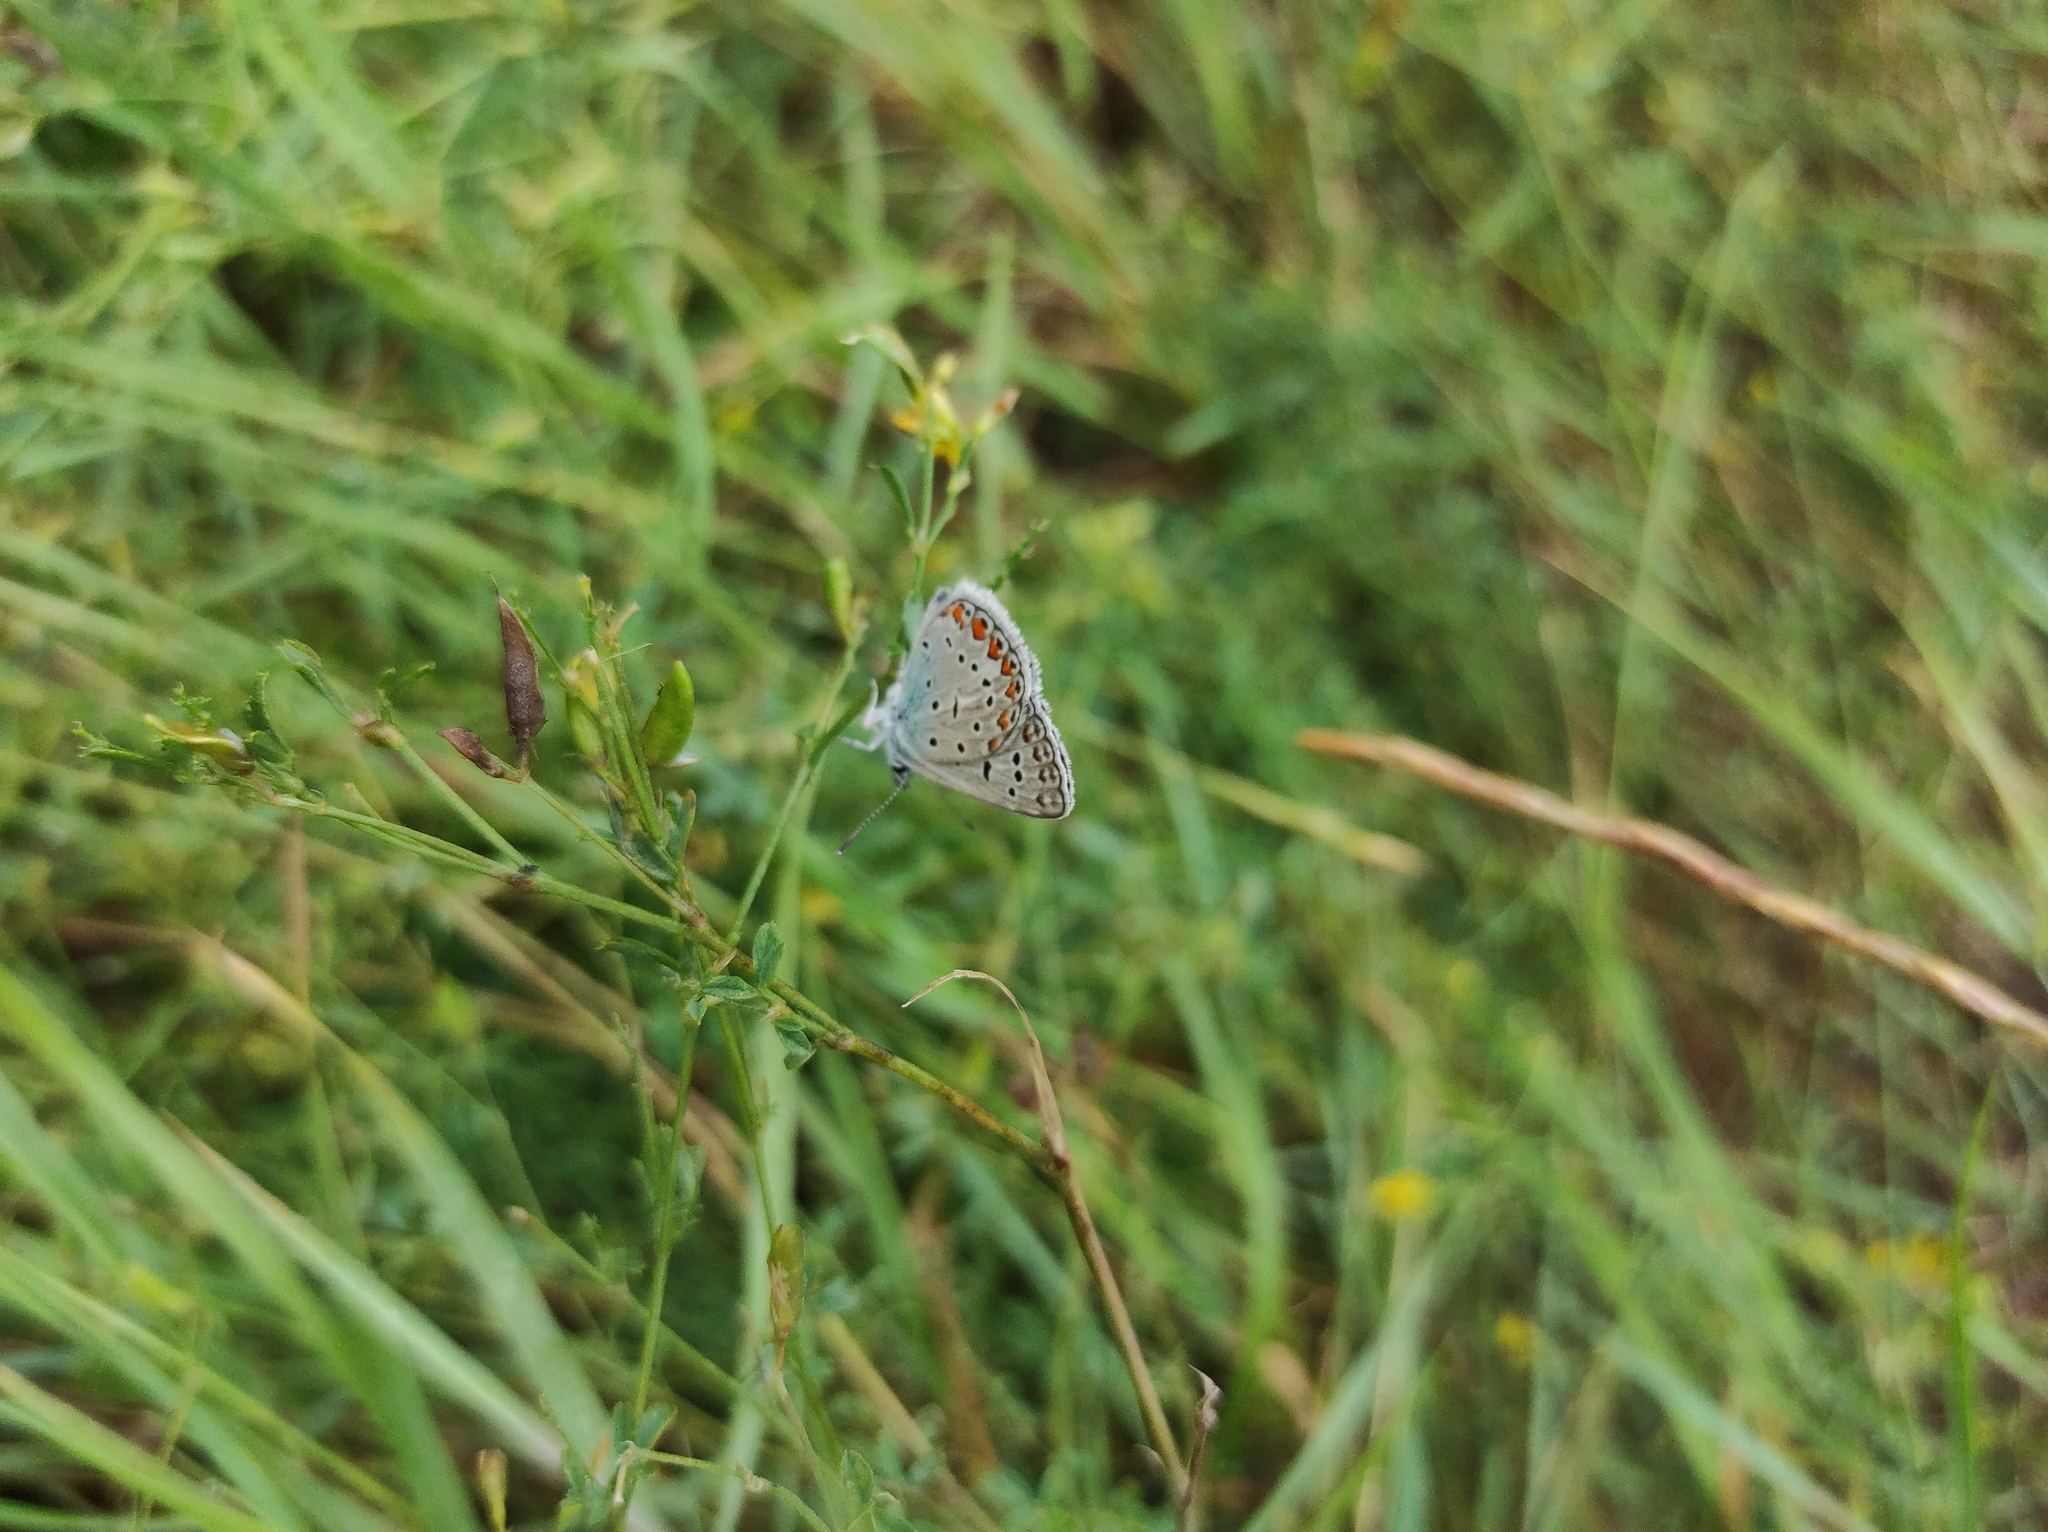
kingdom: Animalia
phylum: Arthropoda
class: Insecta
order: Lepidoptera
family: Lycaenidae
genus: Polyommatus
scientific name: Polyommatus icarus
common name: Common blue
